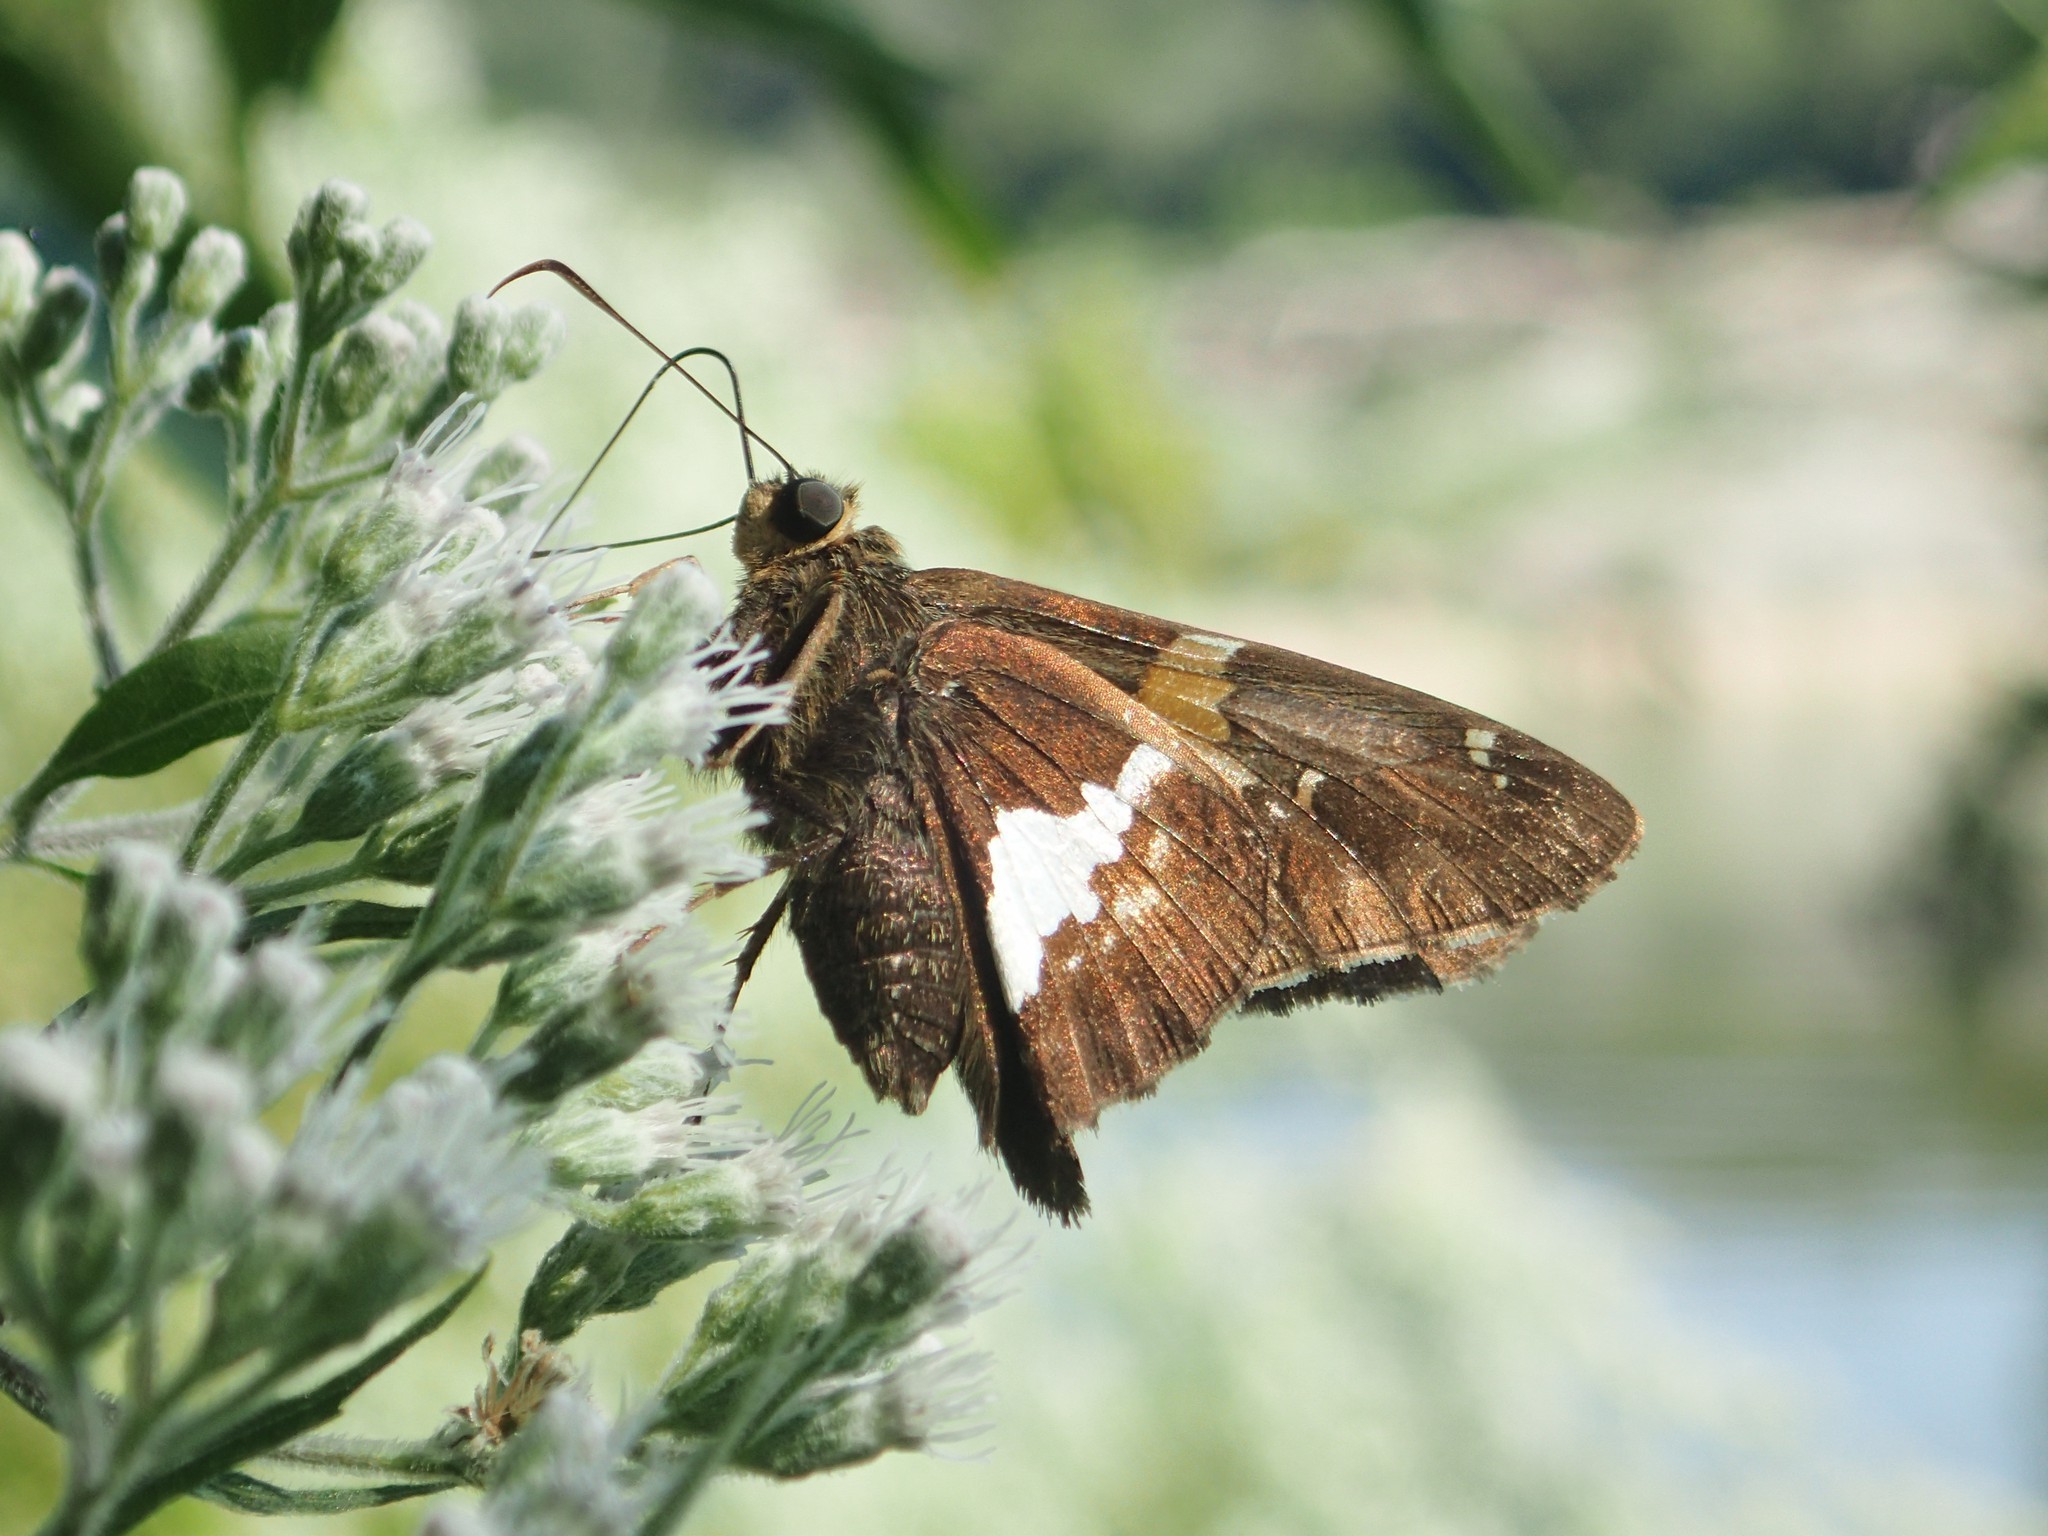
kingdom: Animalia
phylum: Arthropoda
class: Insecta
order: Lepidoptera
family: Hesperiidae
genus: Epargyreus
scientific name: Epargyreus clarus
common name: Silver-spotted skipper
